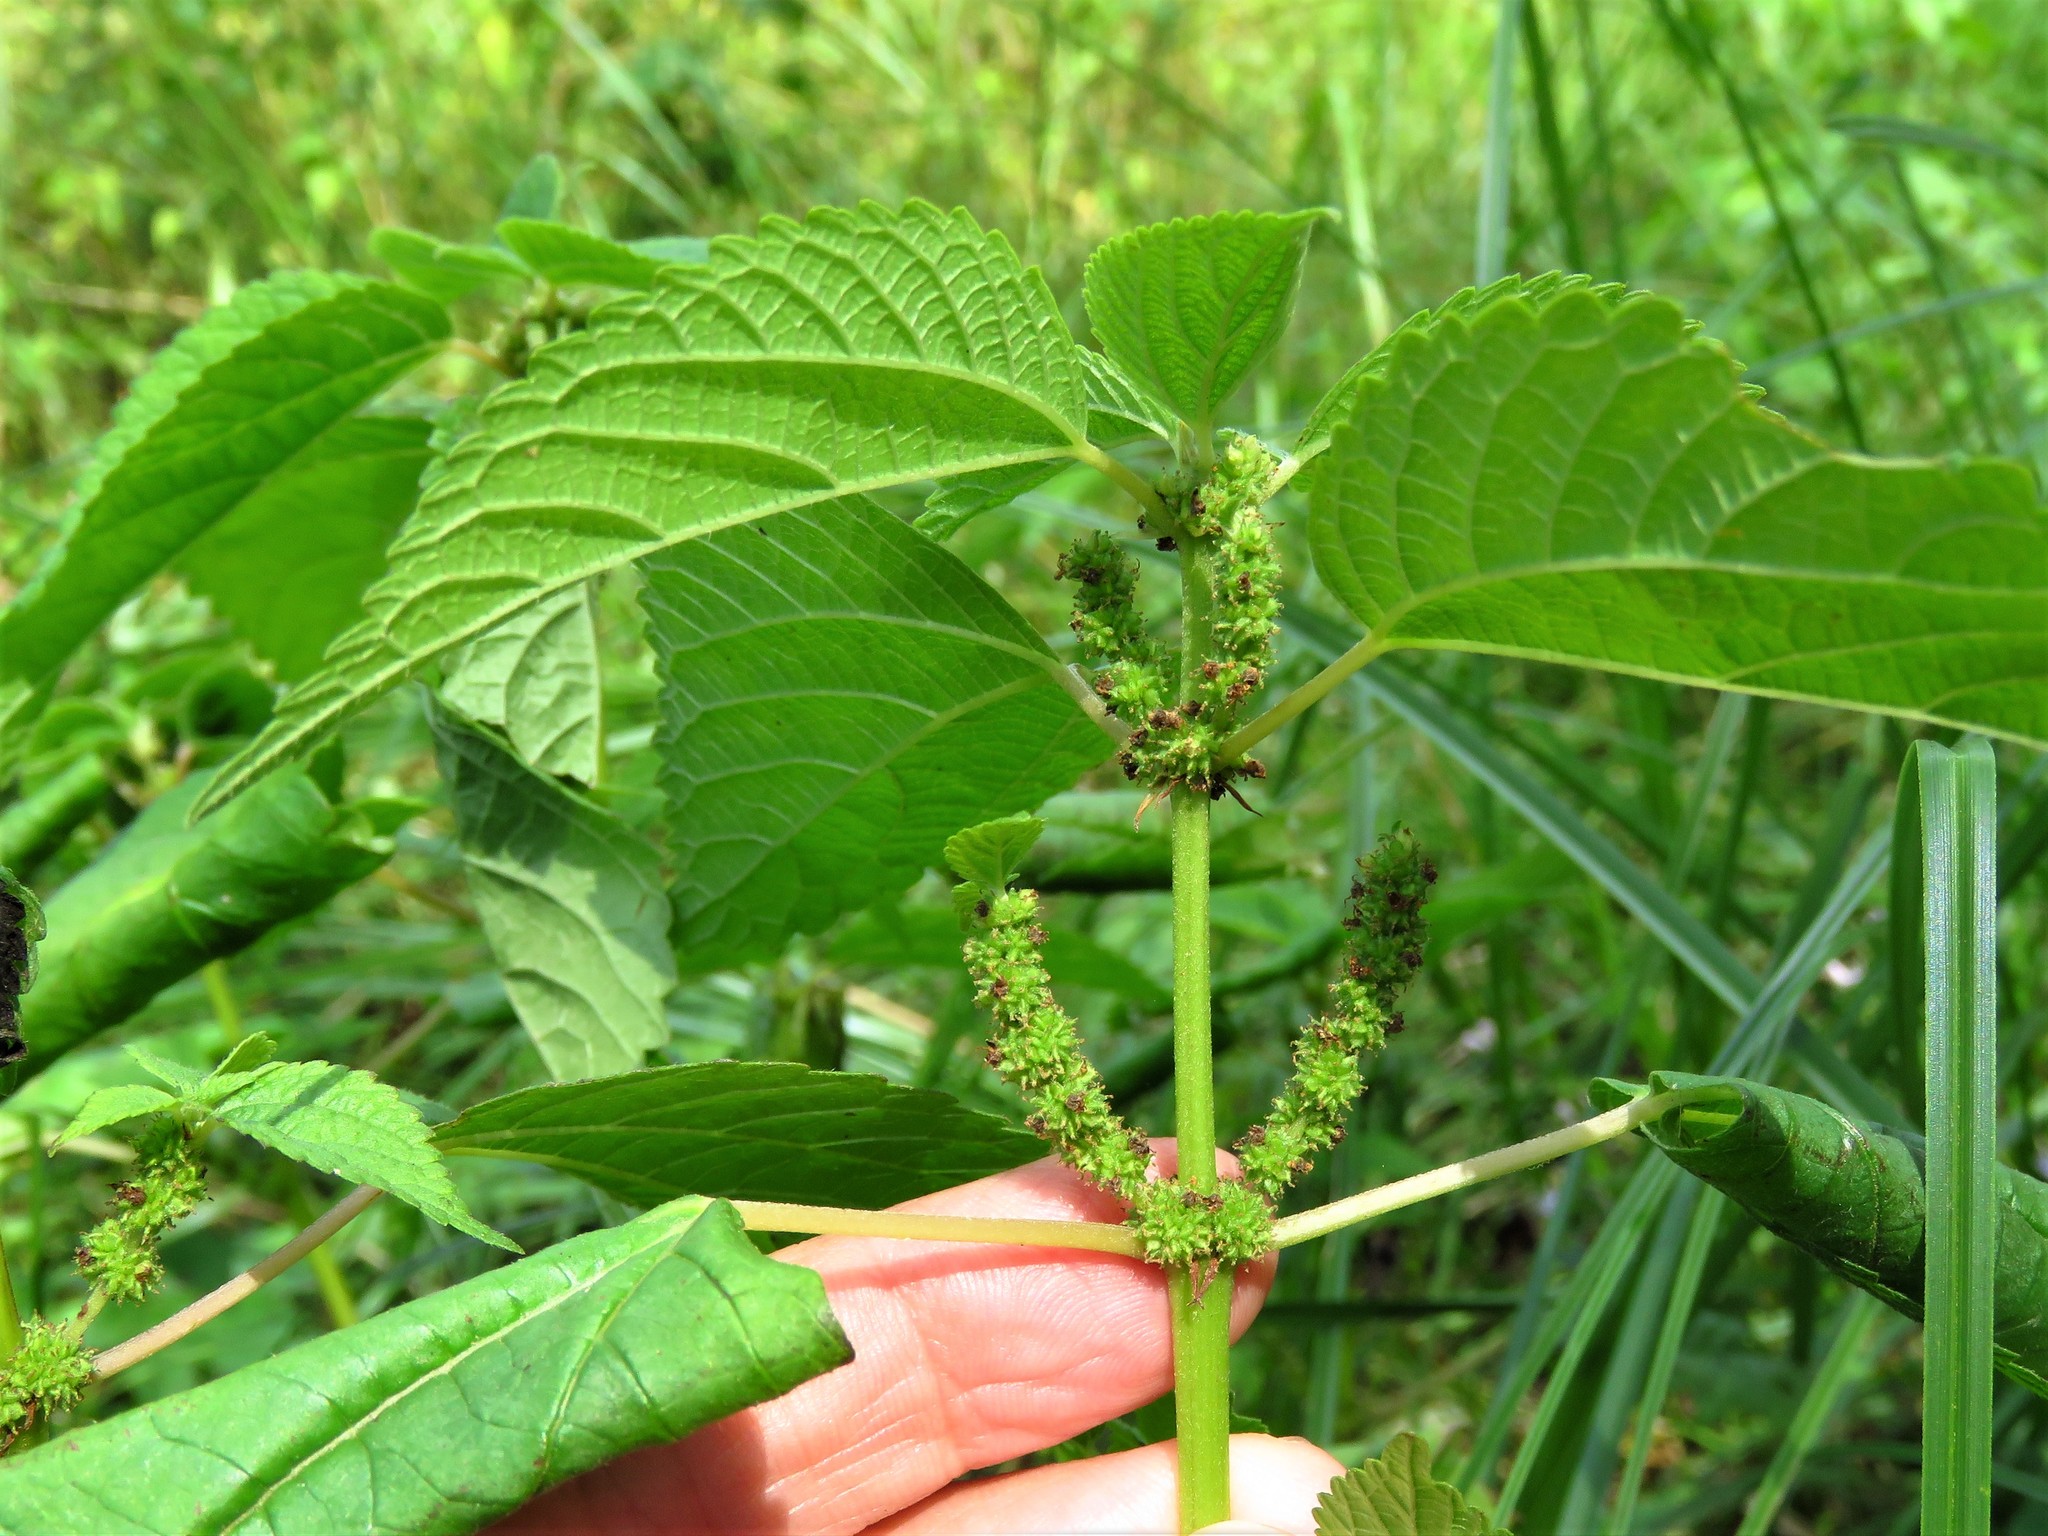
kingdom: Plantae
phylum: Tracheophyta
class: Magnoliopsida
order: Rosales
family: Urticaceae
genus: Boehmeria
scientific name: Boehmeria cylindrica
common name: Bog-hemp
